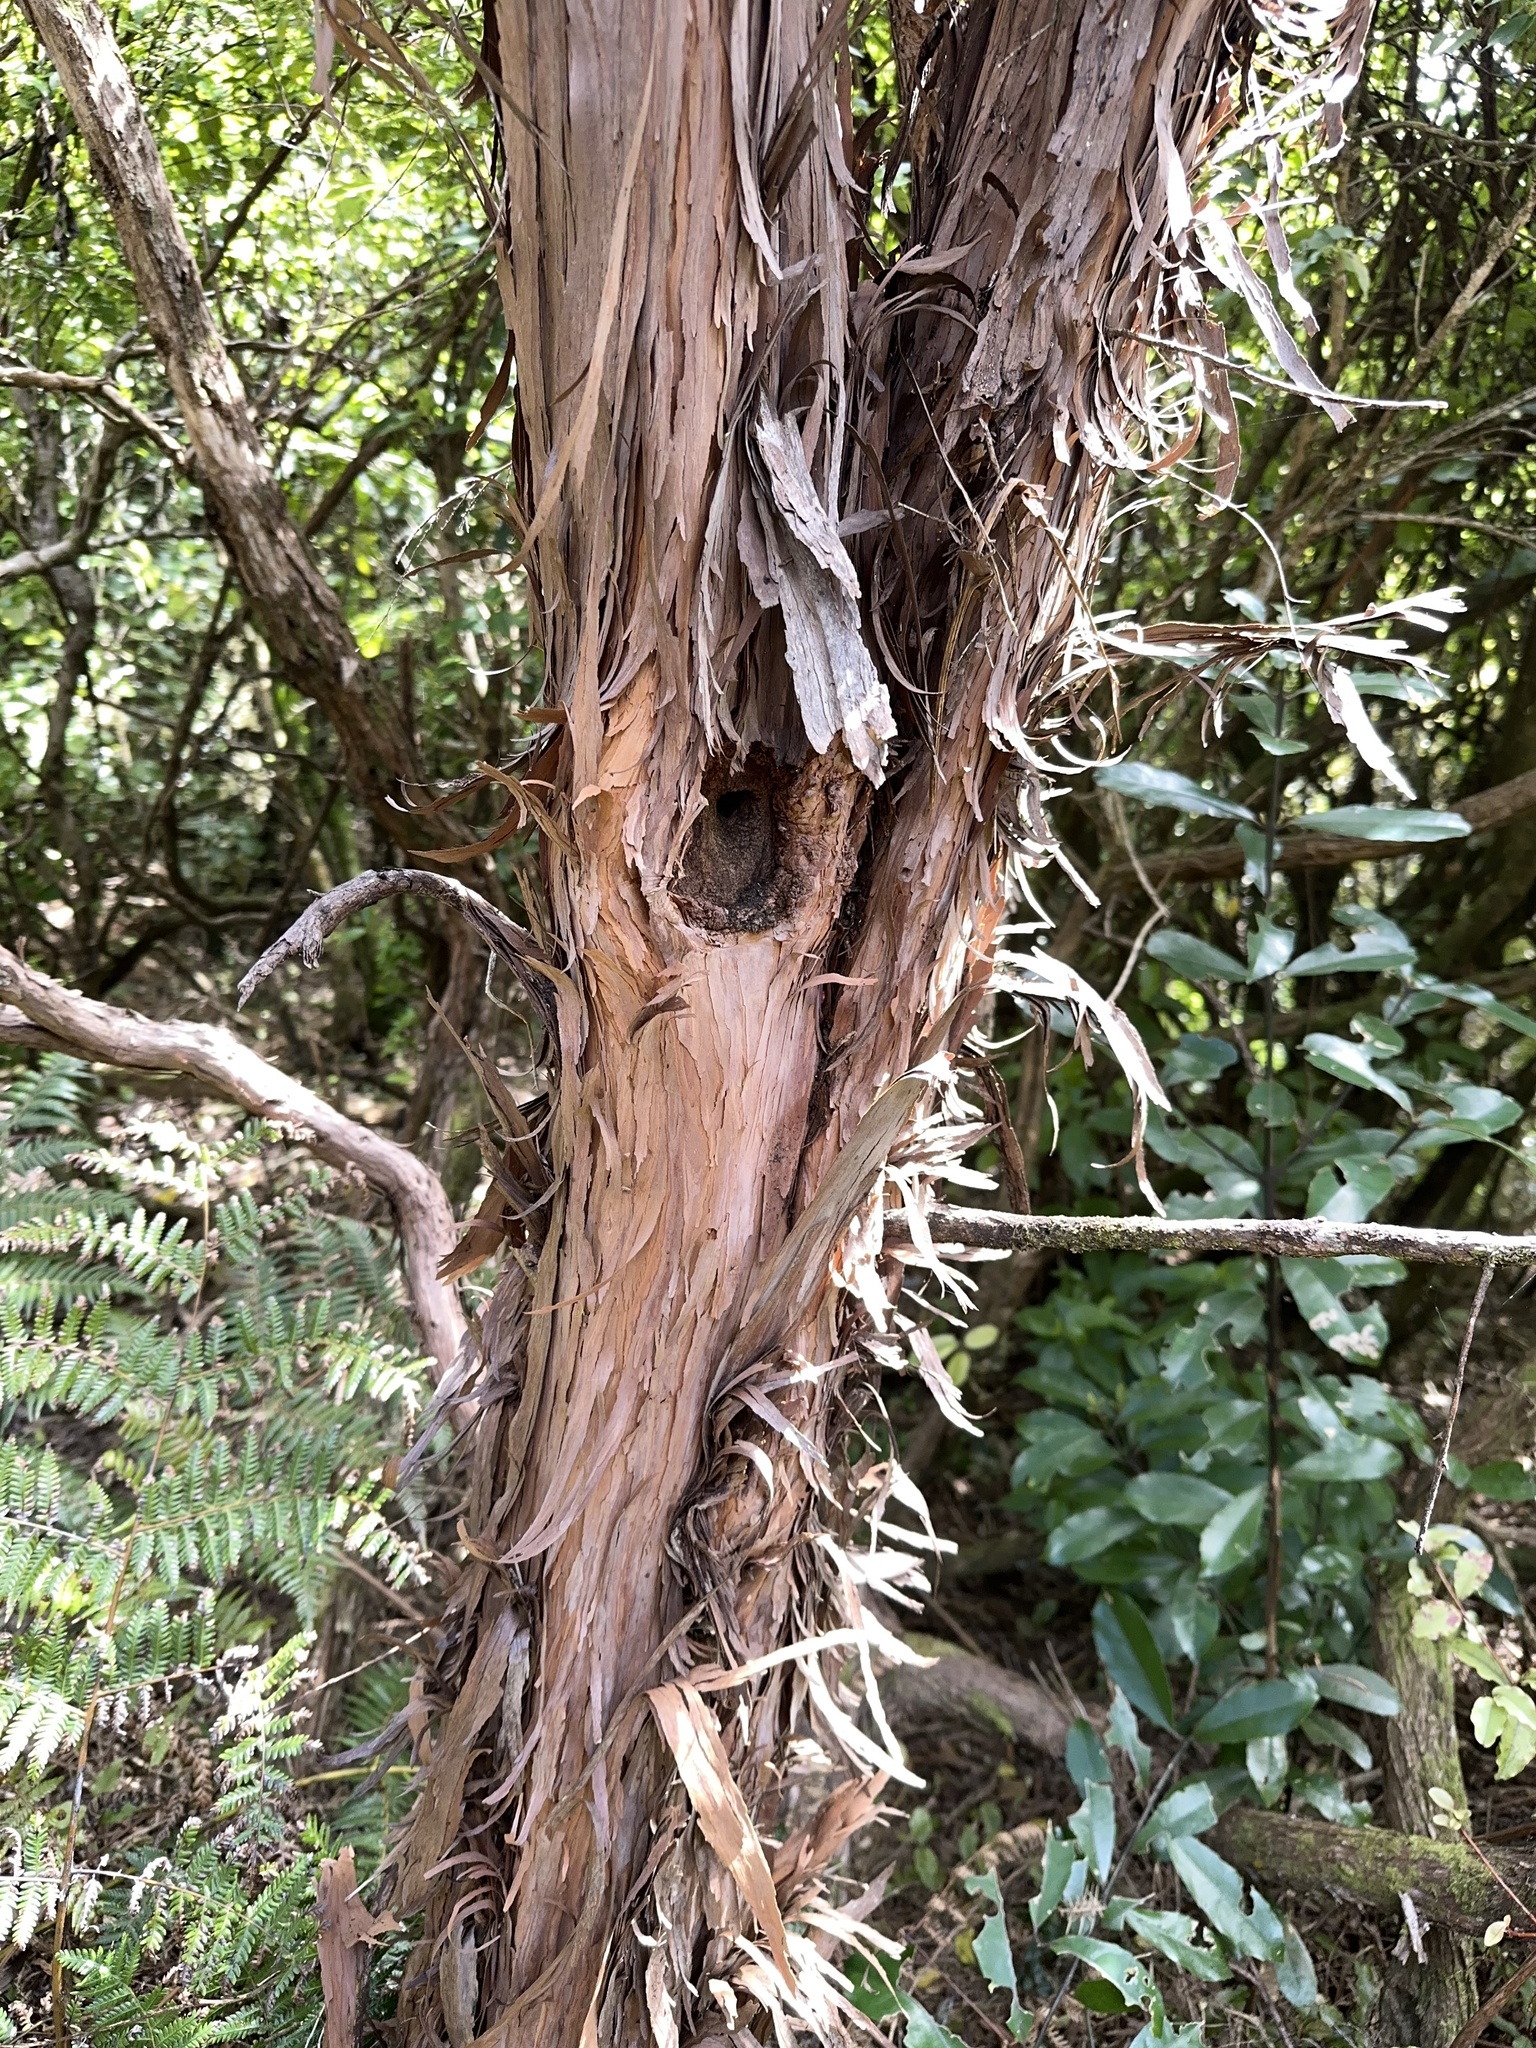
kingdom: Plantae
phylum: Tracheophyta
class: Magnoliopsida
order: Myrtales
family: Myrtaceae
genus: Leptospermum
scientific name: Leptospermum scoparium
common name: Broom tea-tree
